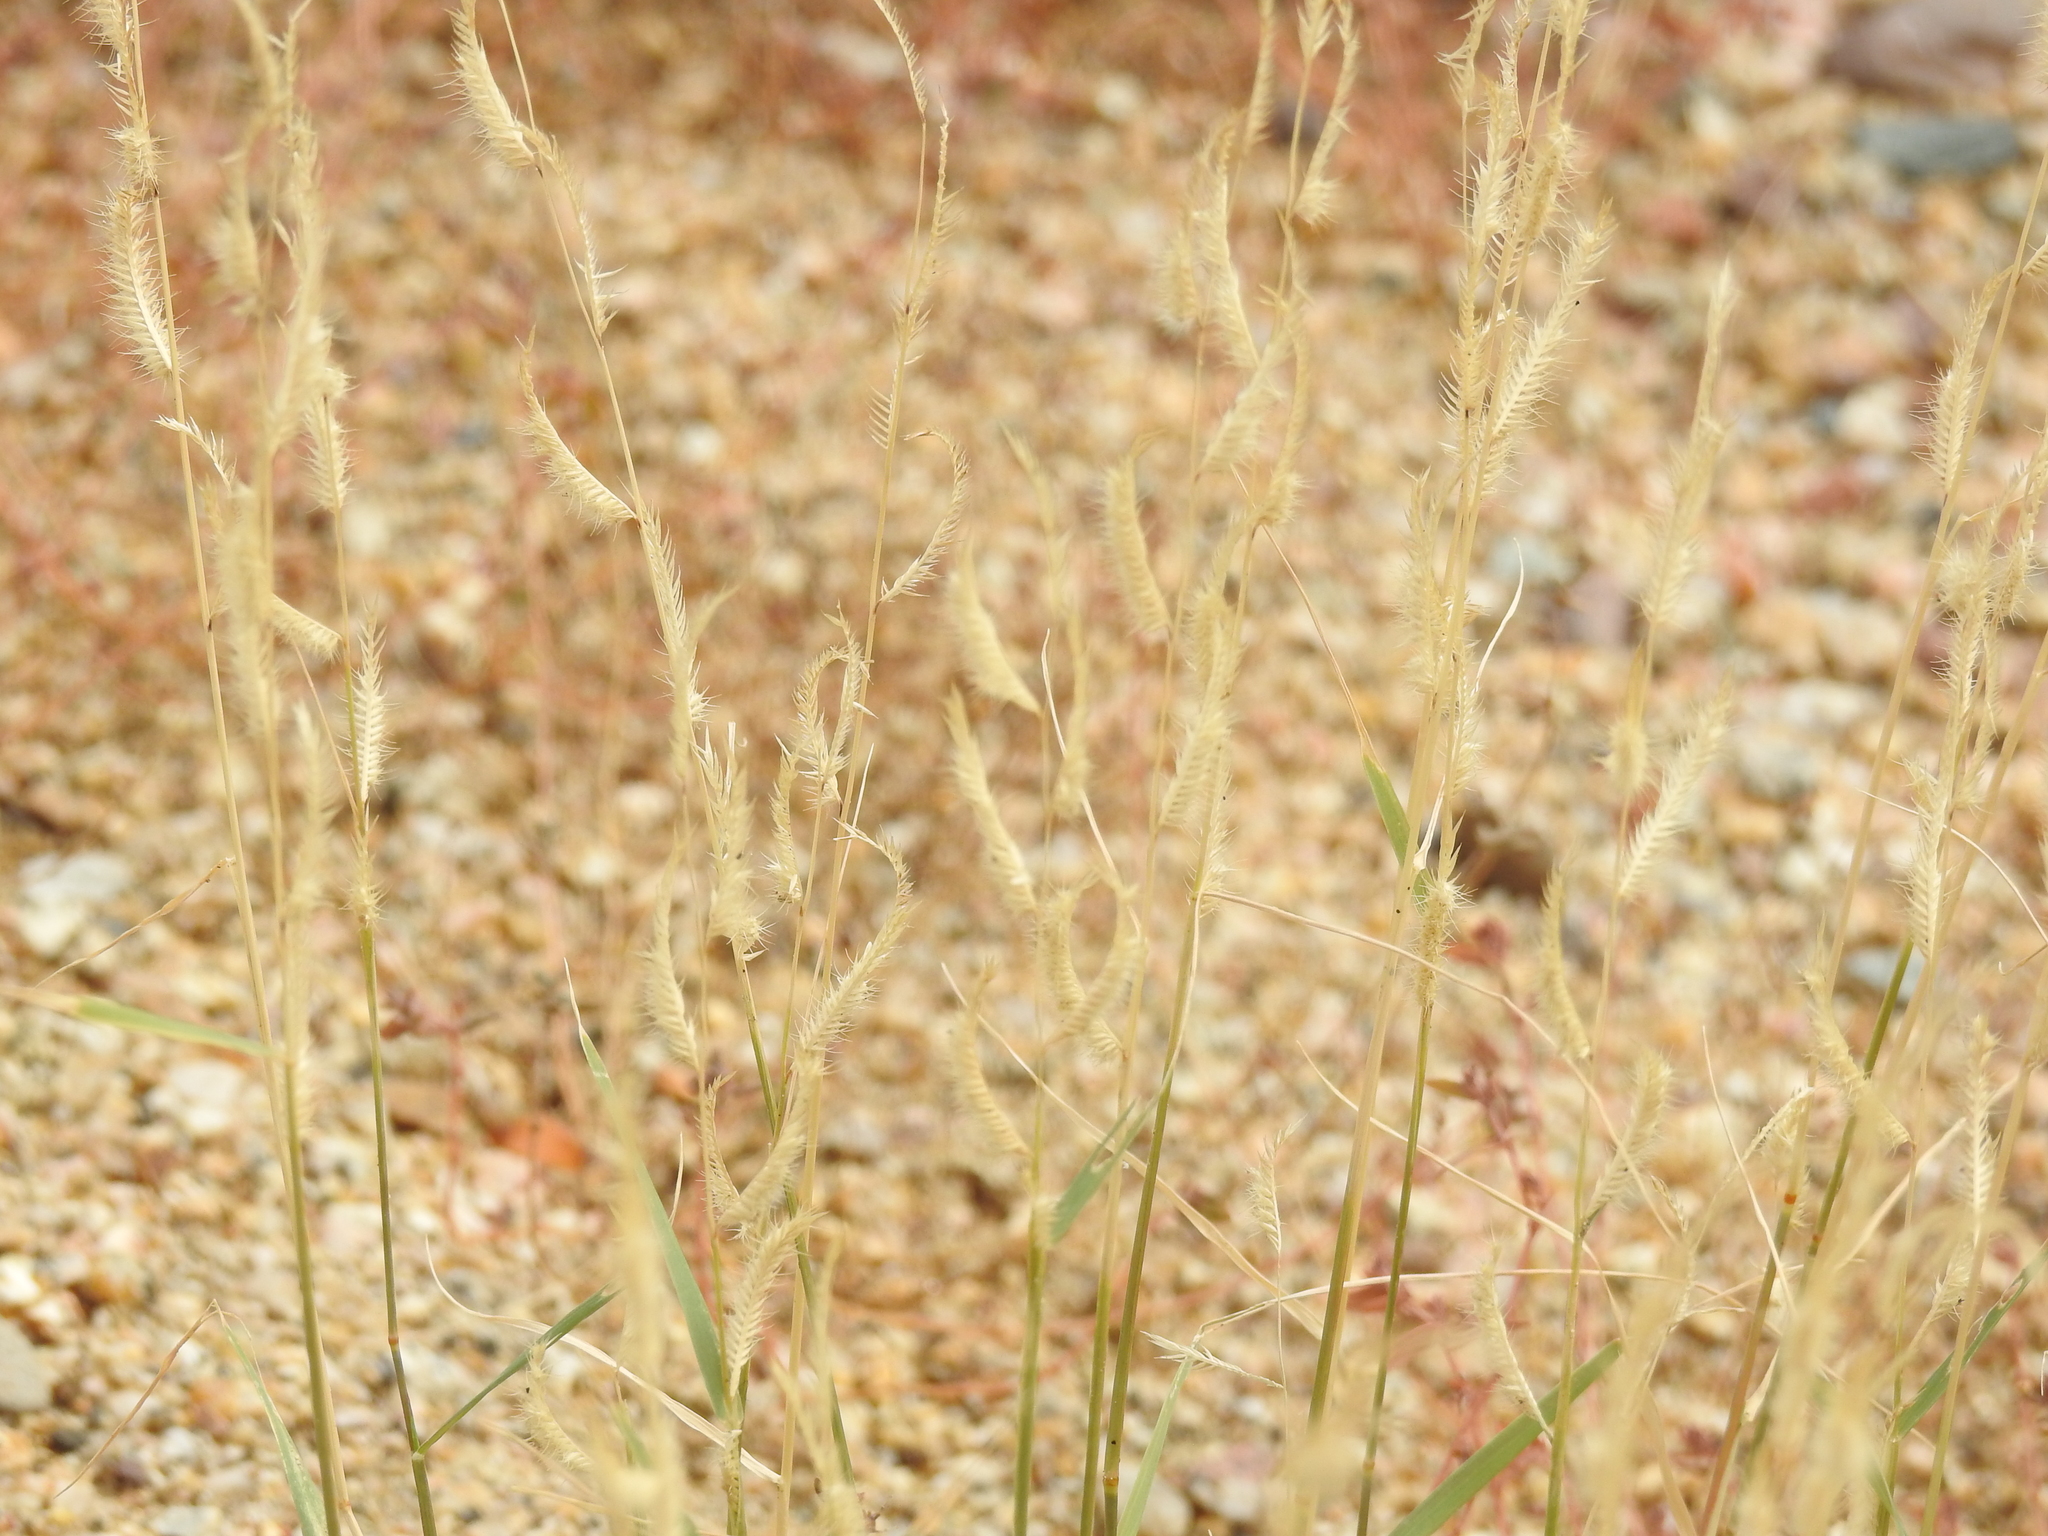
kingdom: Plantae
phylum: Tracheophyta
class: Liliopsida
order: Poales
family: Poaceae
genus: Bouteloua
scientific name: Bouteloua barbata
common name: Six-weeks grama
